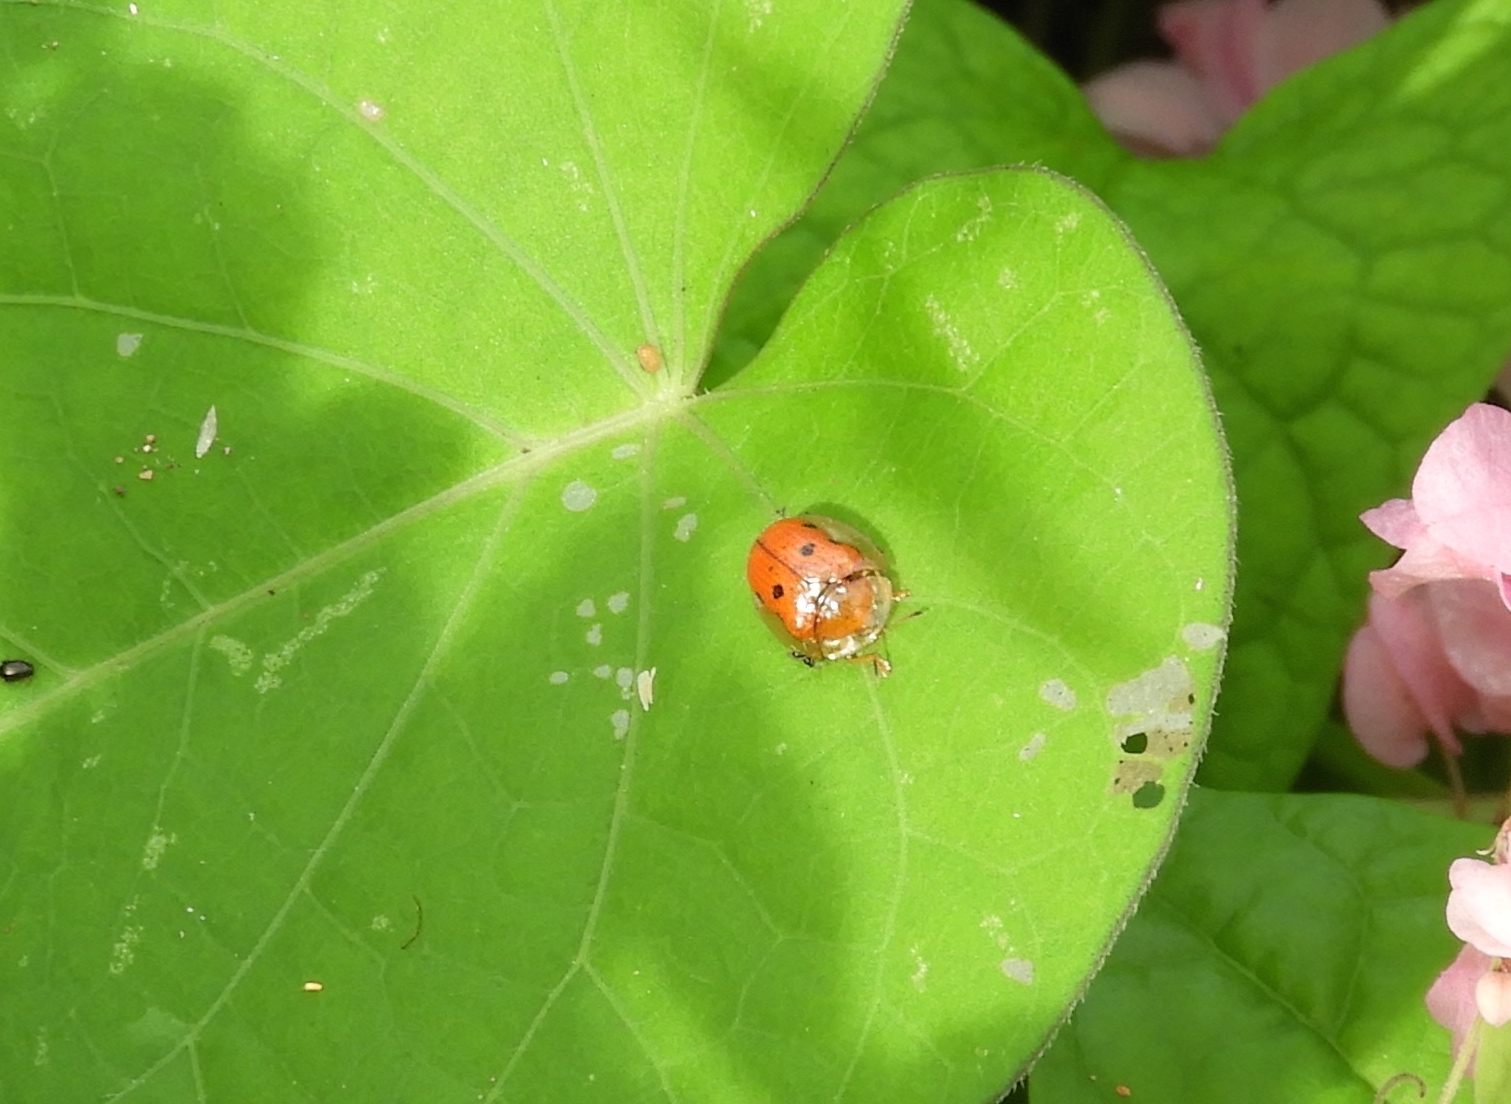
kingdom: Animalia
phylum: Arthropoda
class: Insecta
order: Coleoptera
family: Chrysomelidae
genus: Charidotella
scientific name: Charidotella sexpunctata
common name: Golden tortoise beetle
